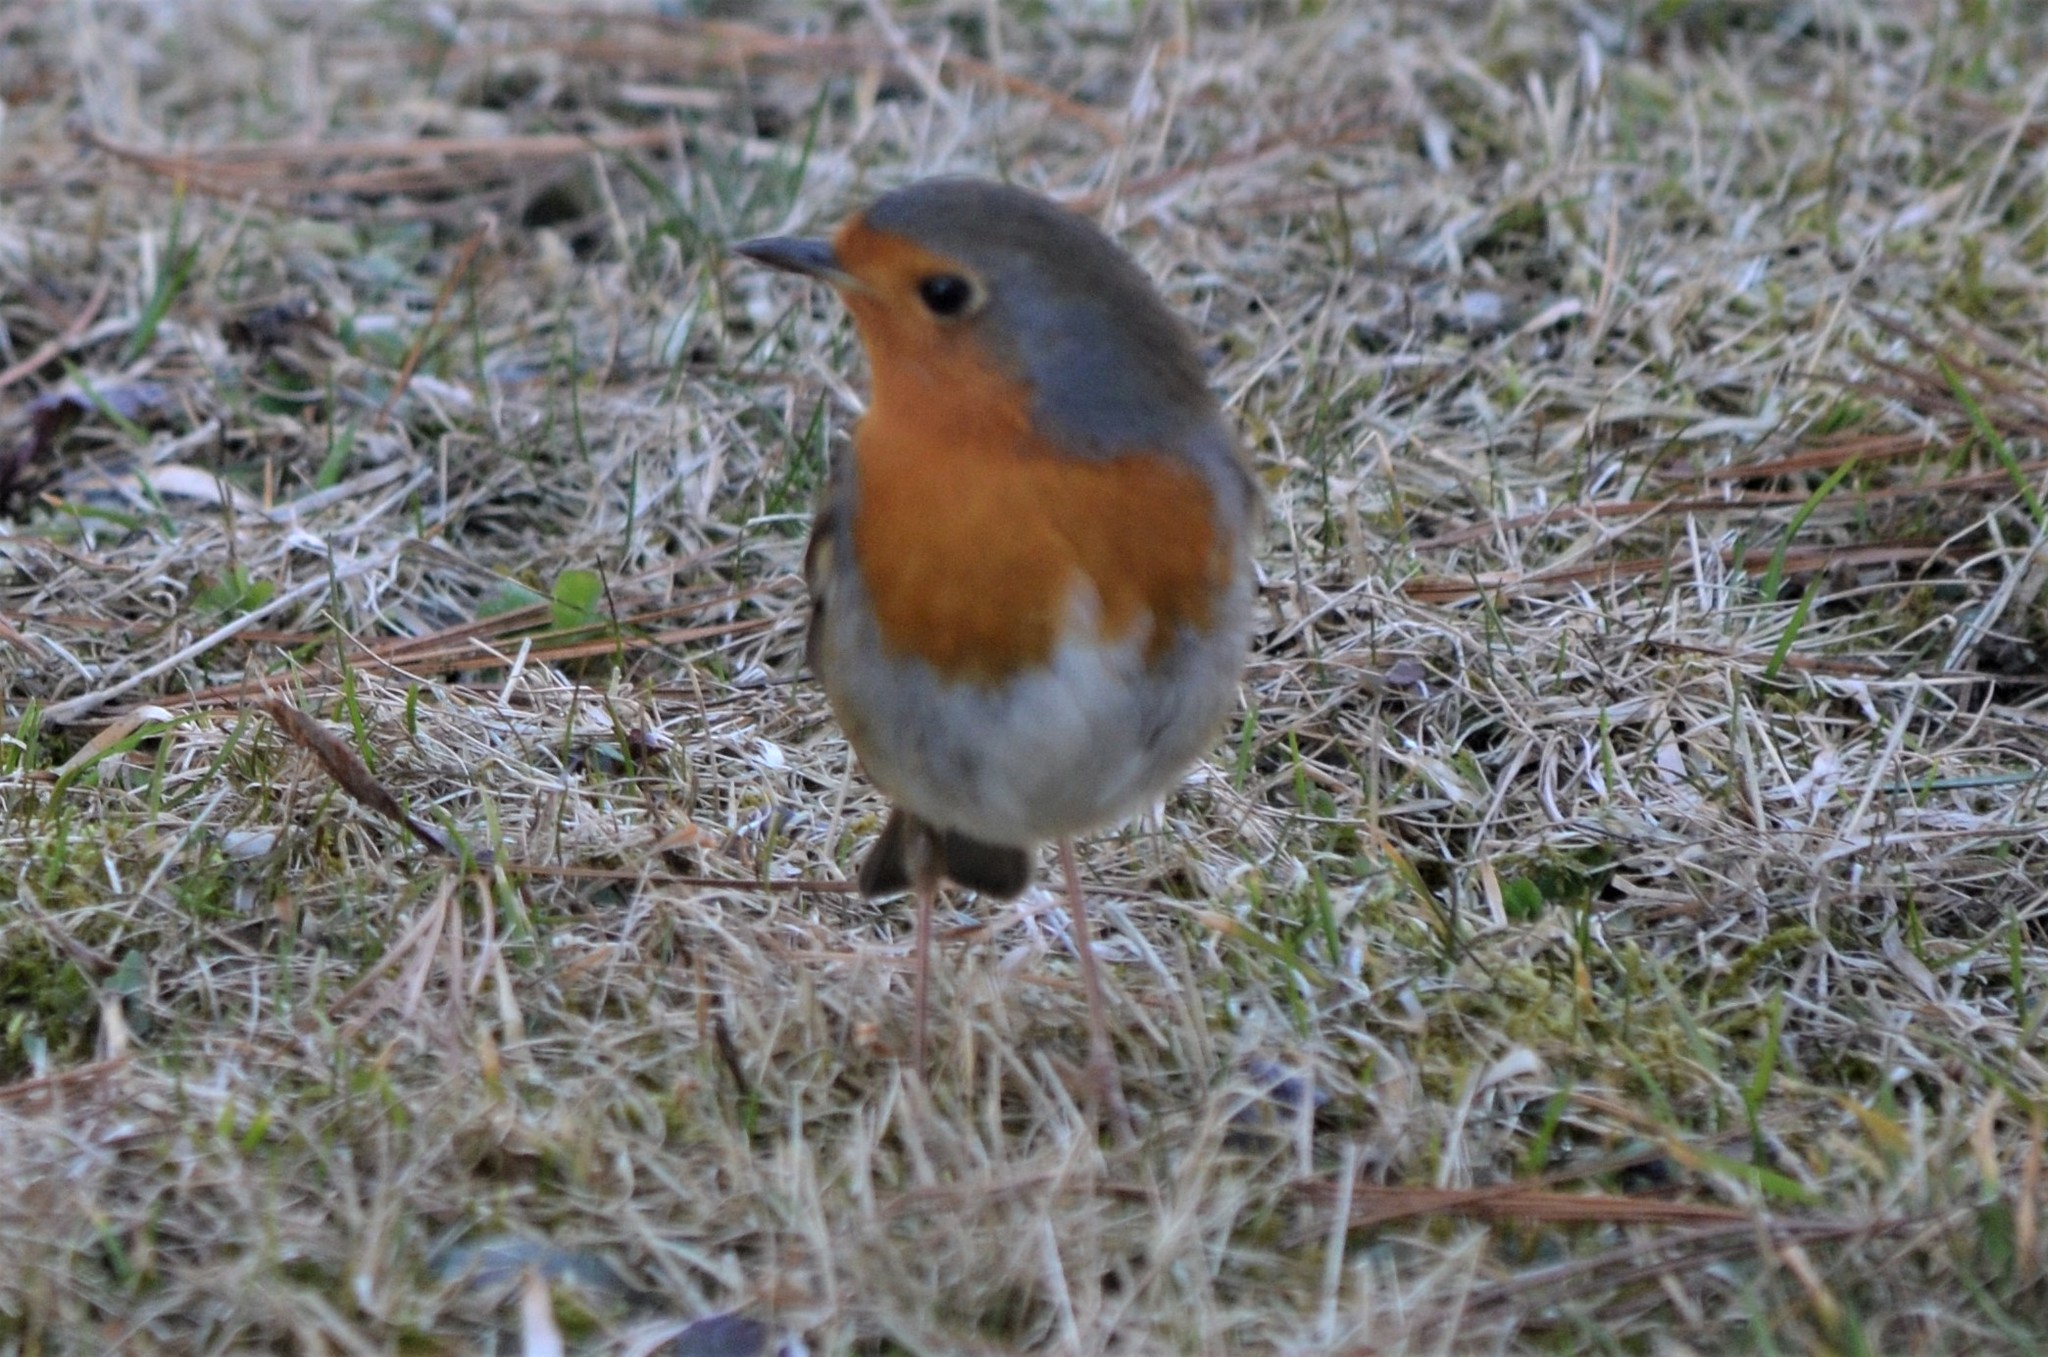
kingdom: Animalia
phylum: Chordata
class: Aves
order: Passeriformes
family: Muscicapidae
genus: Erithacus
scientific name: Erithacus rubecula
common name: European robin
